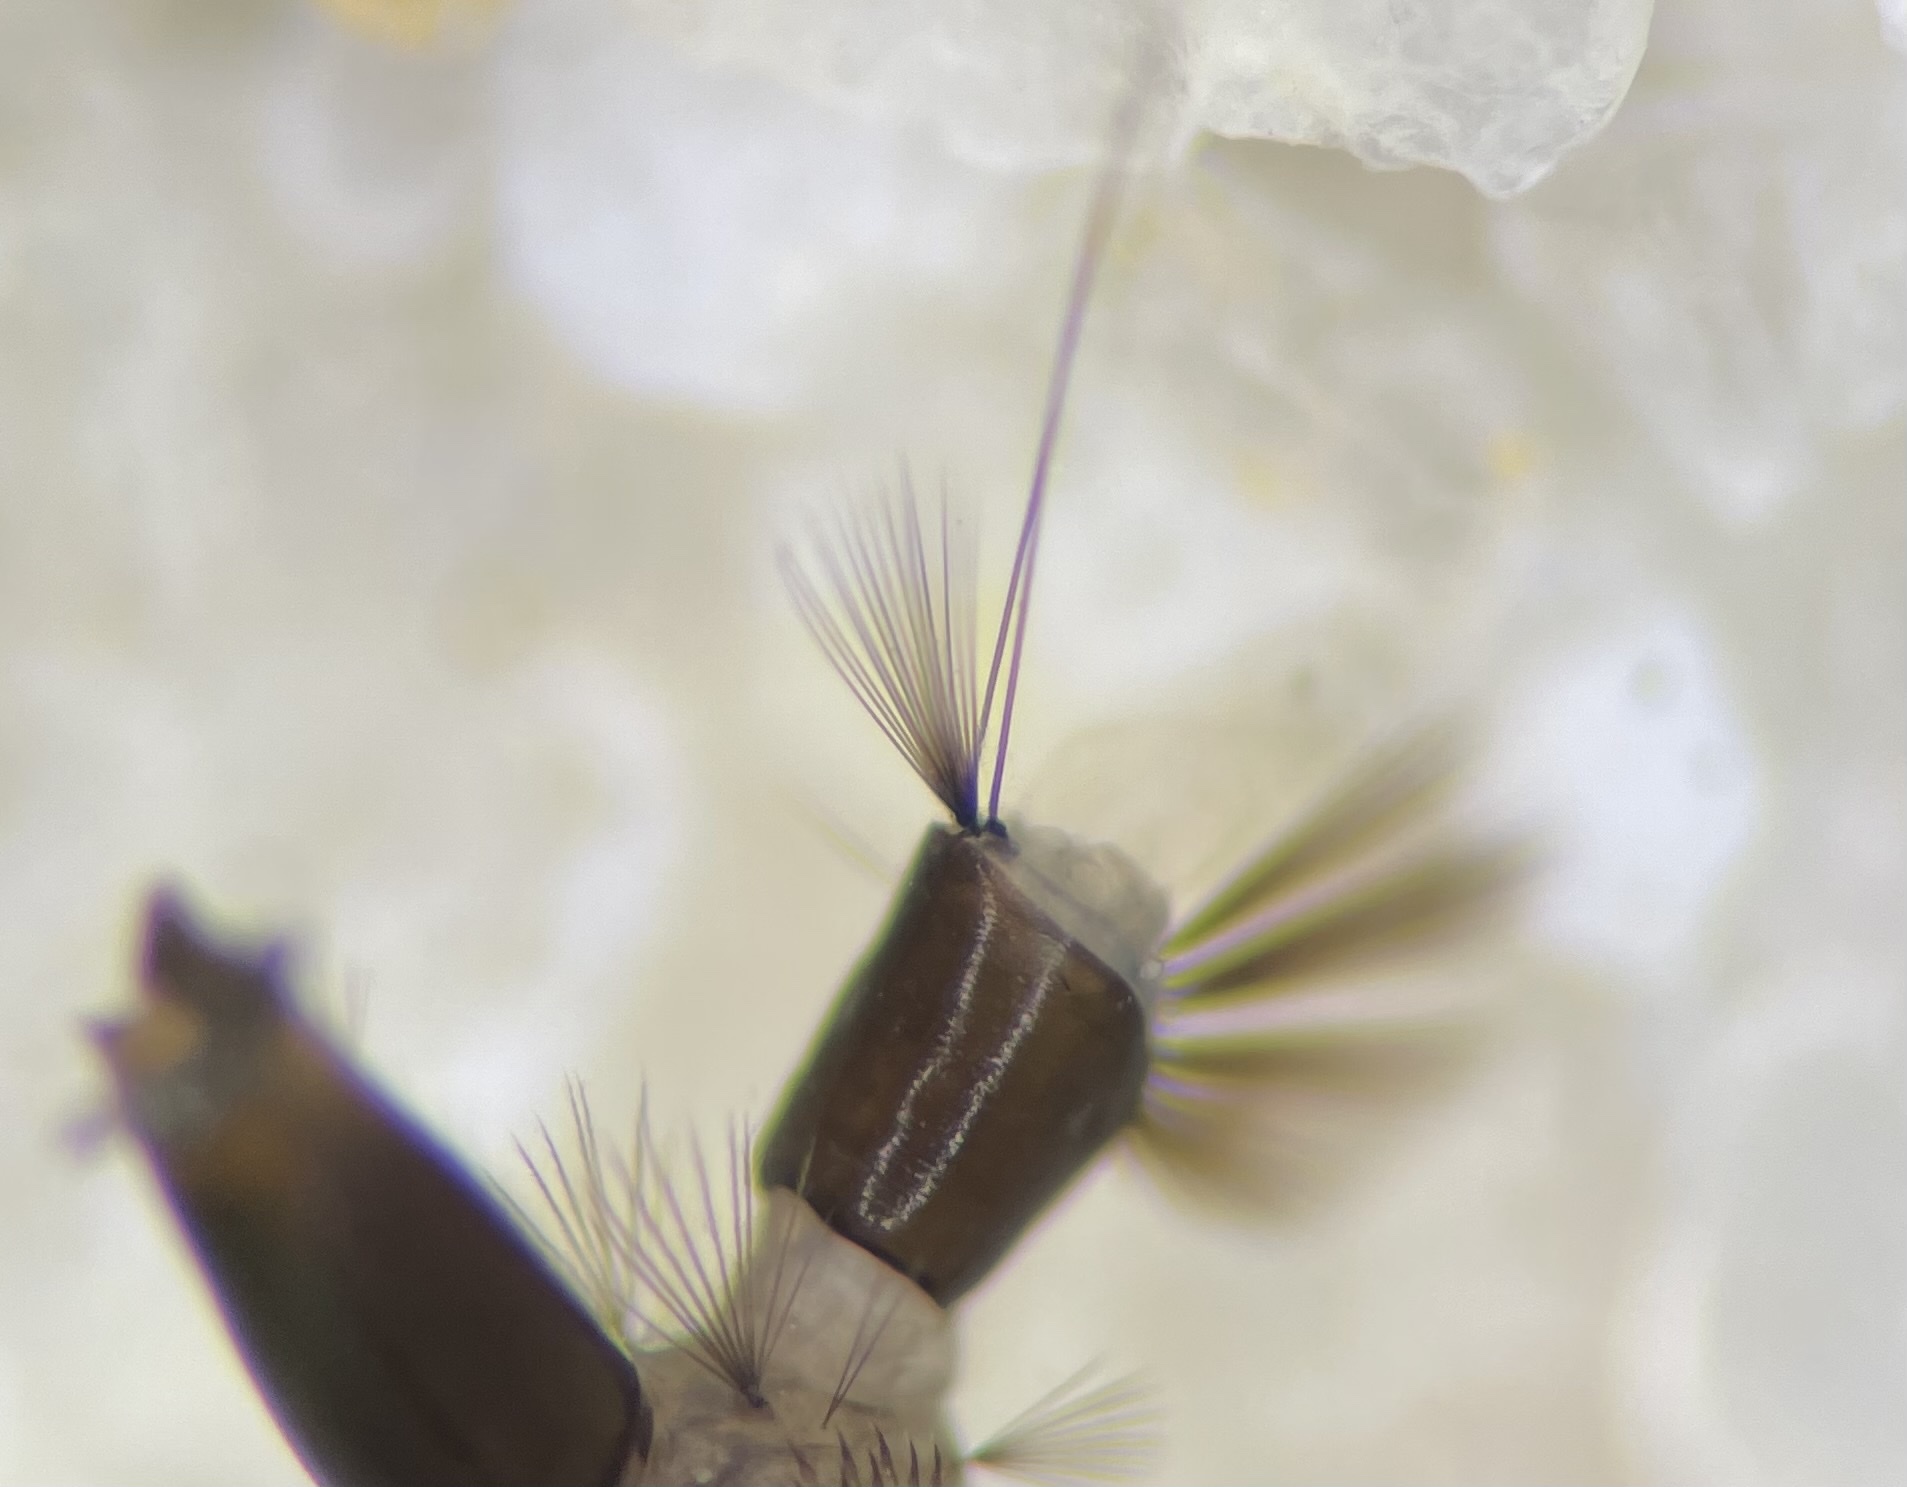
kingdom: Animalia
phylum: Arthropoda
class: Insecta
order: Diptera
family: Culicidae
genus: Aedes
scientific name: Aedes tormentor
